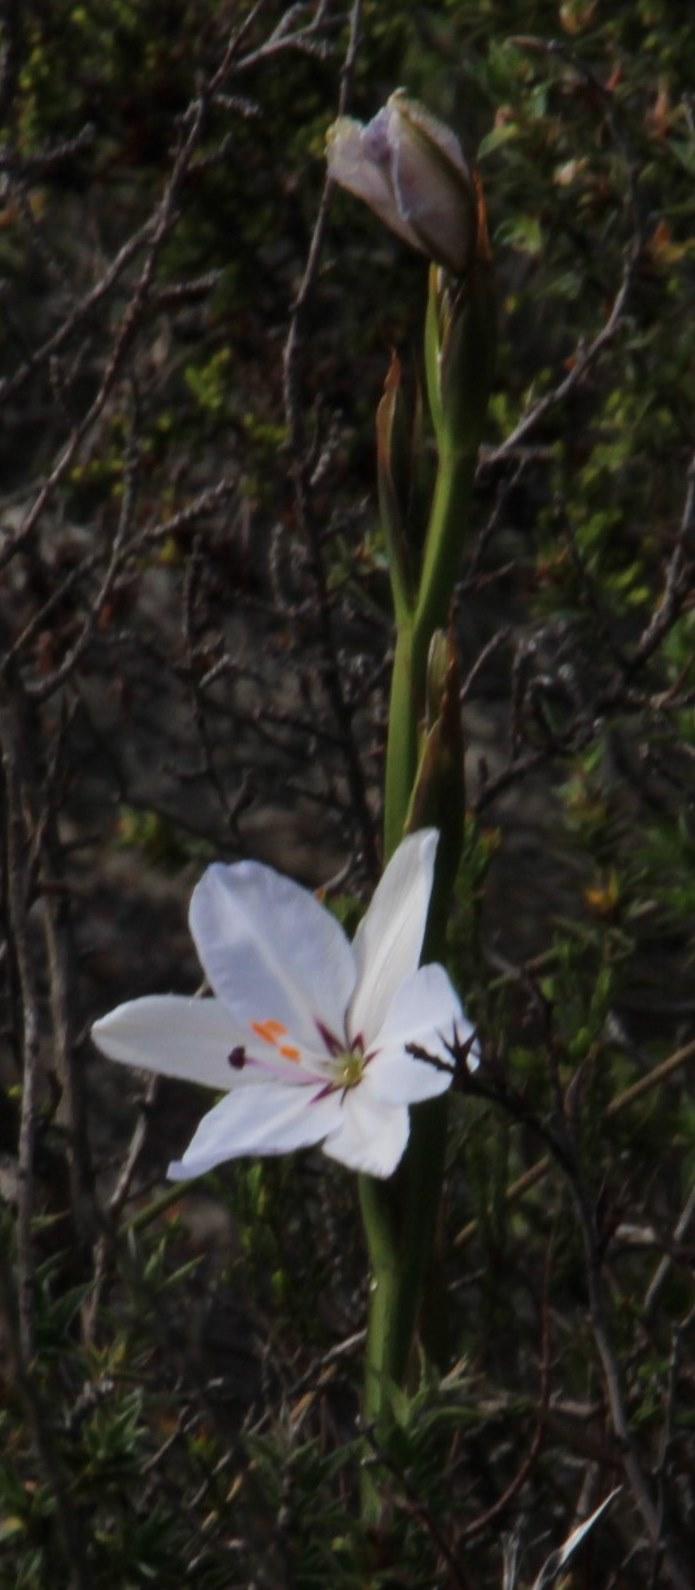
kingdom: Plantae
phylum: Tracheophyta
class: Liliopsida
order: Asparagales
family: Iridaceae
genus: Aristea
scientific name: Aristea spiralis
